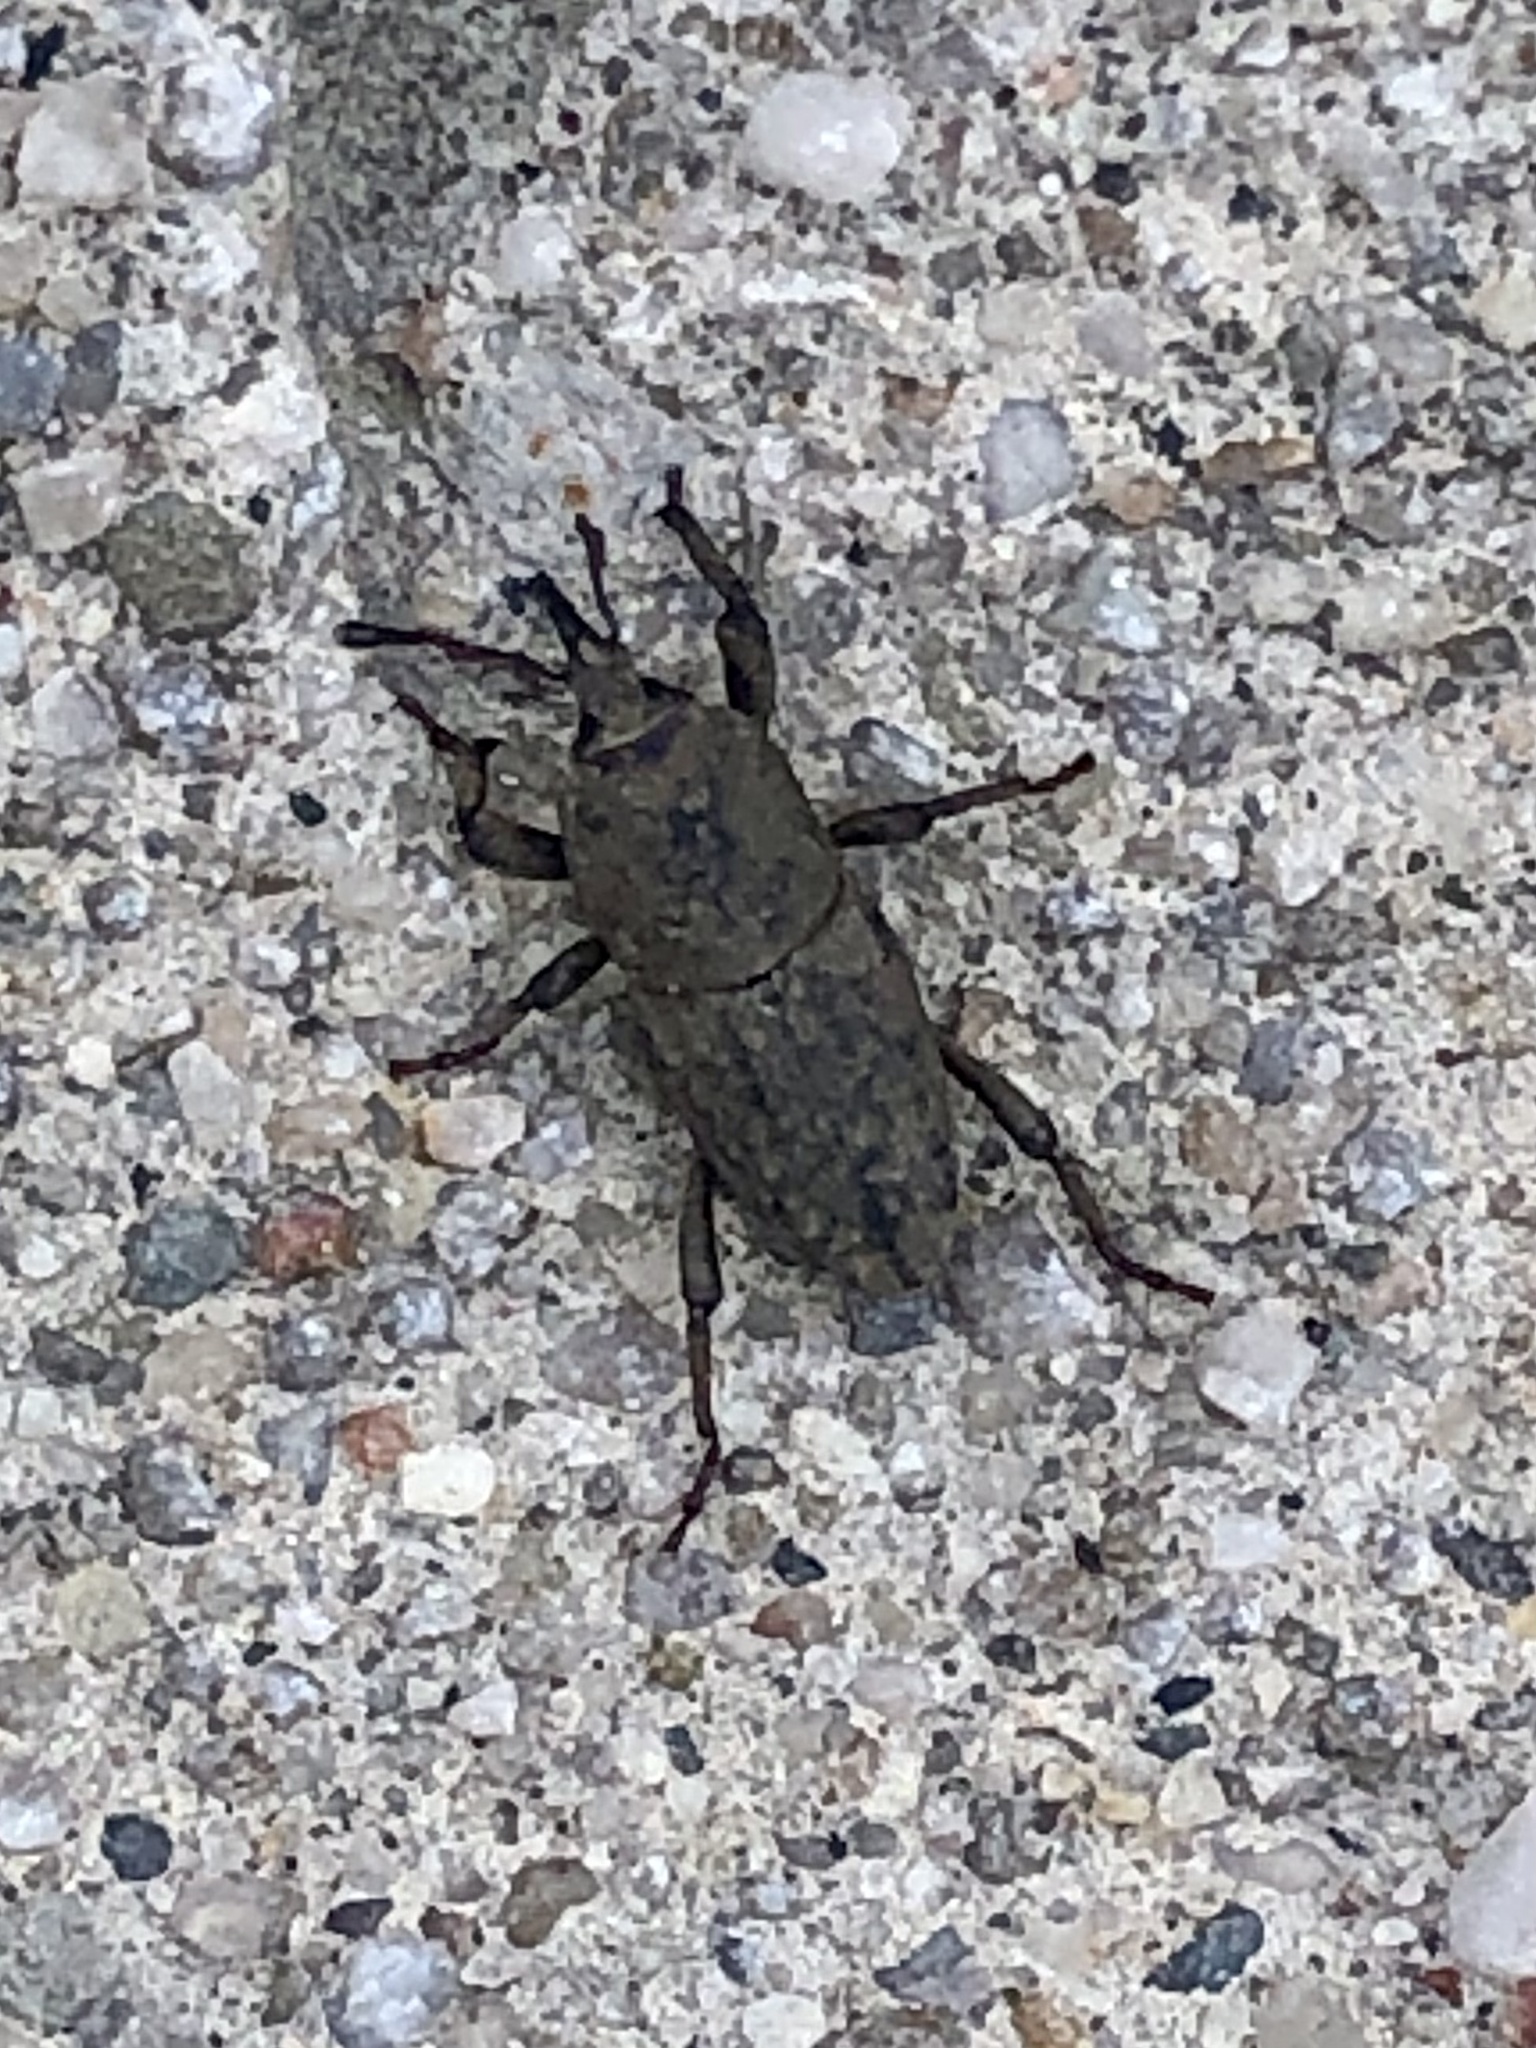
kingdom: Animalia
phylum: Arthropoda
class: Insecta
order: Coleoptera
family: Dryophthoridae
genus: Sphenophorus
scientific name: Sphenophorus minimus
